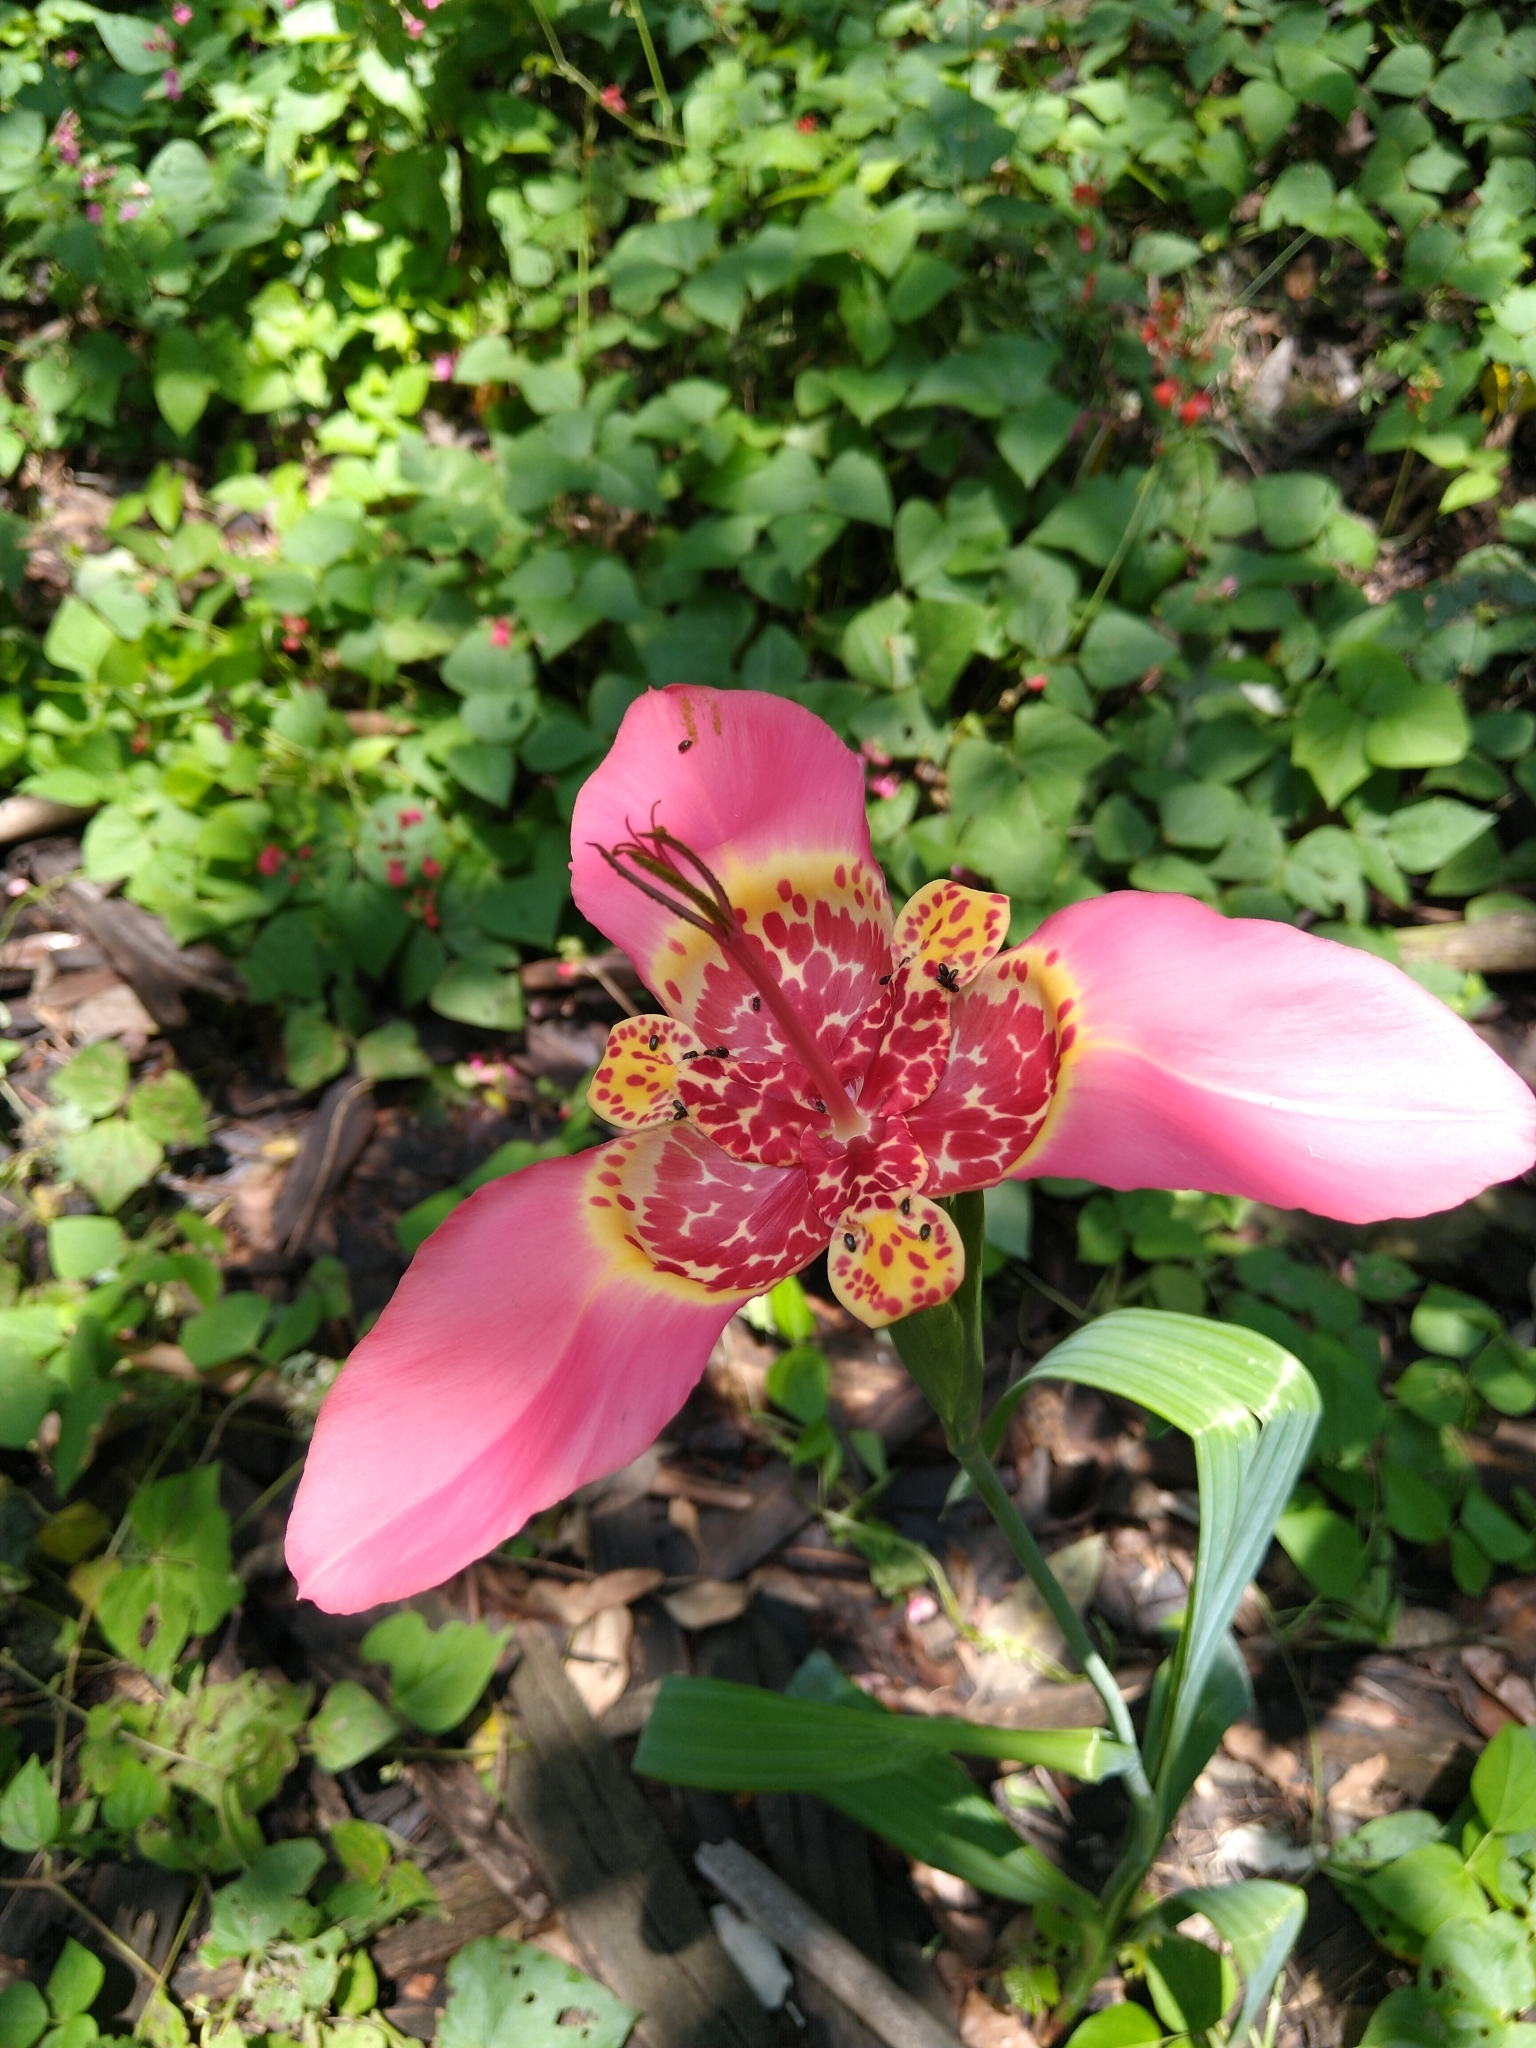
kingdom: Plantae
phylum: Tracheophyta
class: Liliopsida
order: Asparagales
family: Iridaceae
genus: Tigridia
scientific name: Tigridia pavonia
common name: Peacock-flower
